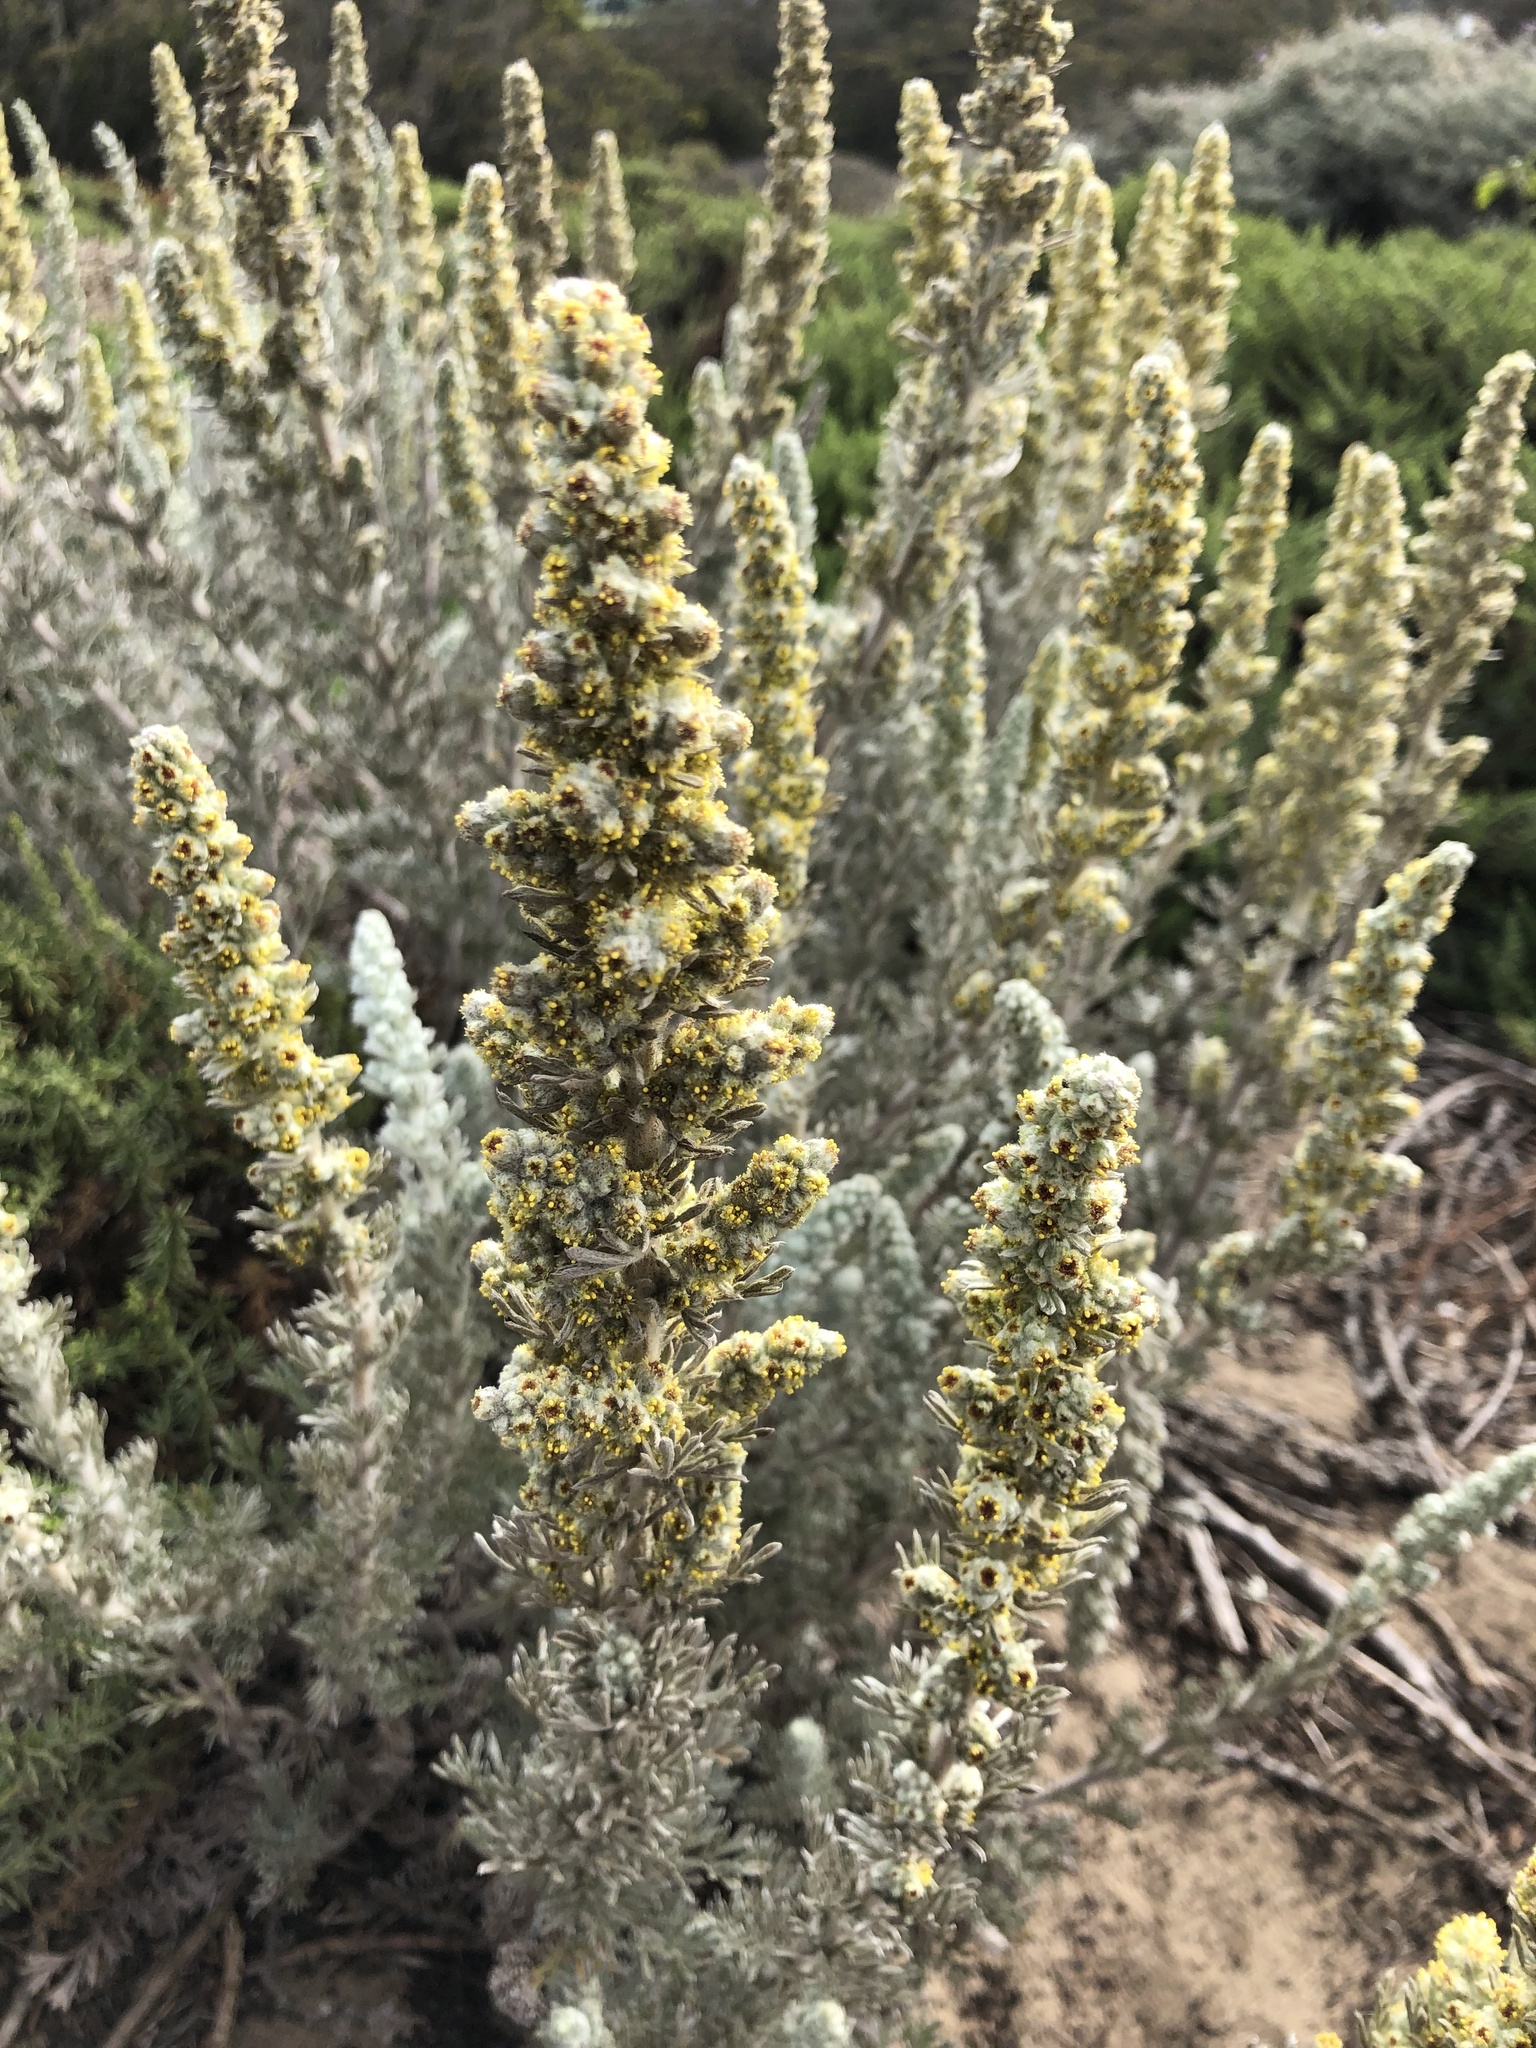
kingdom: Plantae
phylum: Tracheophyta
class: Magnoliopsida
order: Asterales
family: Asteraceae
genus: Artemisia
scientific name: Artemisia pycnocephala
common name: Coastal sagewort
